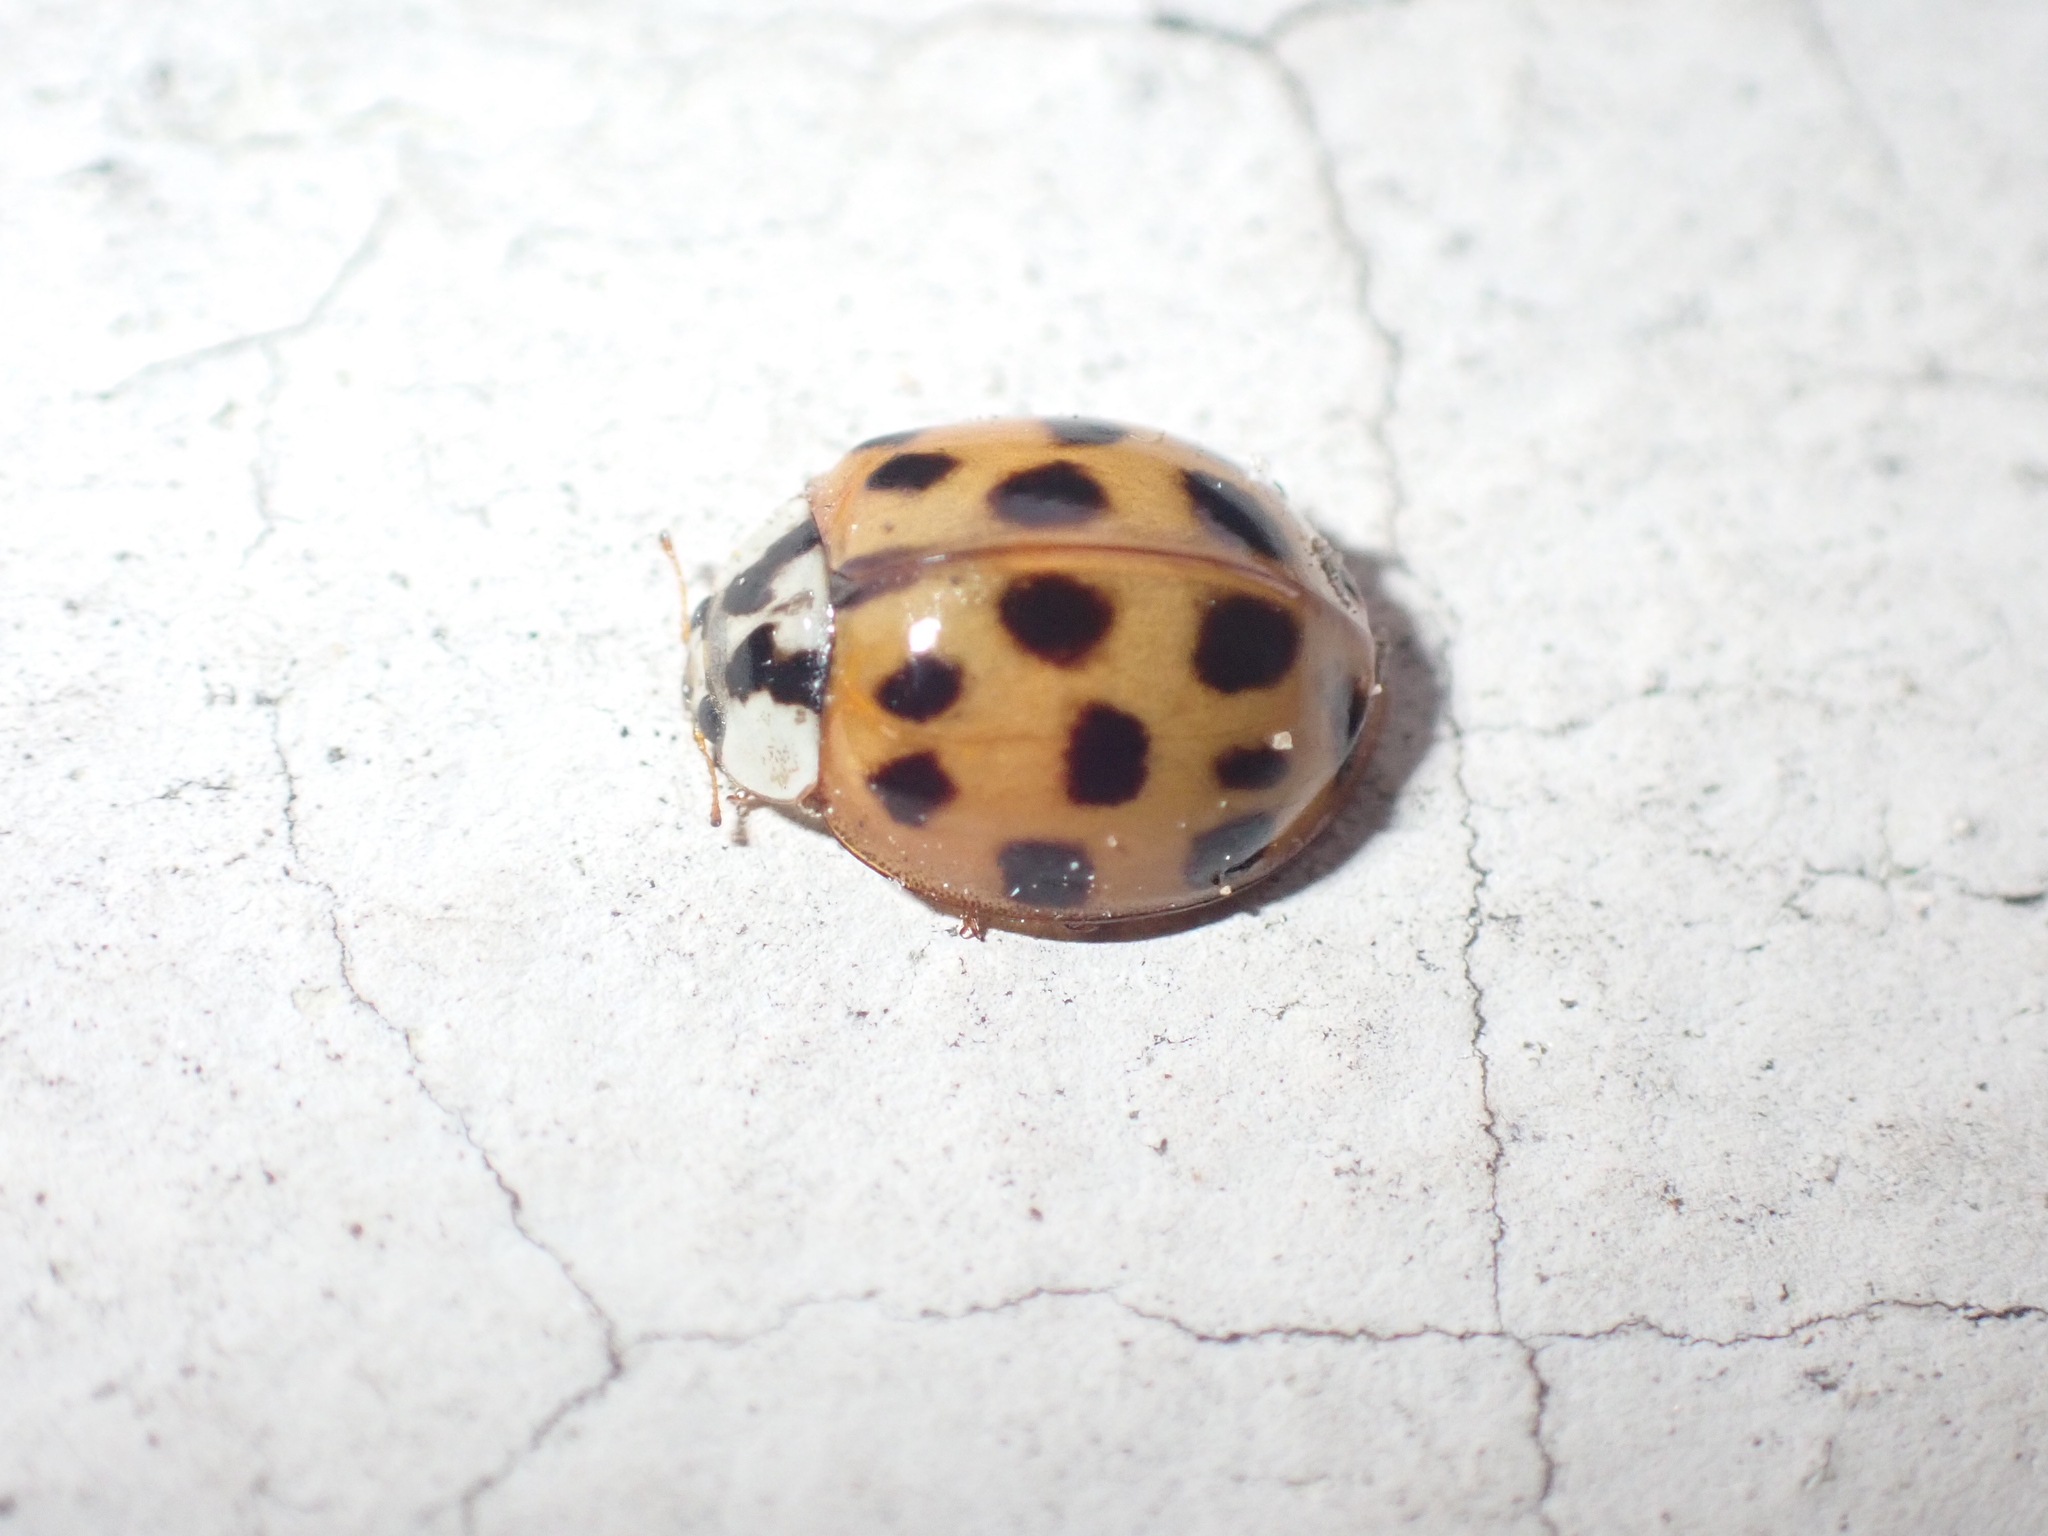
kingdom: Animalia
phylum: Arthropoda
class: Insecta
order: Coleoptera
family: Coccinellidae
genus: Harmonia
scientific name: Harmonia axyridis
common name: Harlequin ladybird
